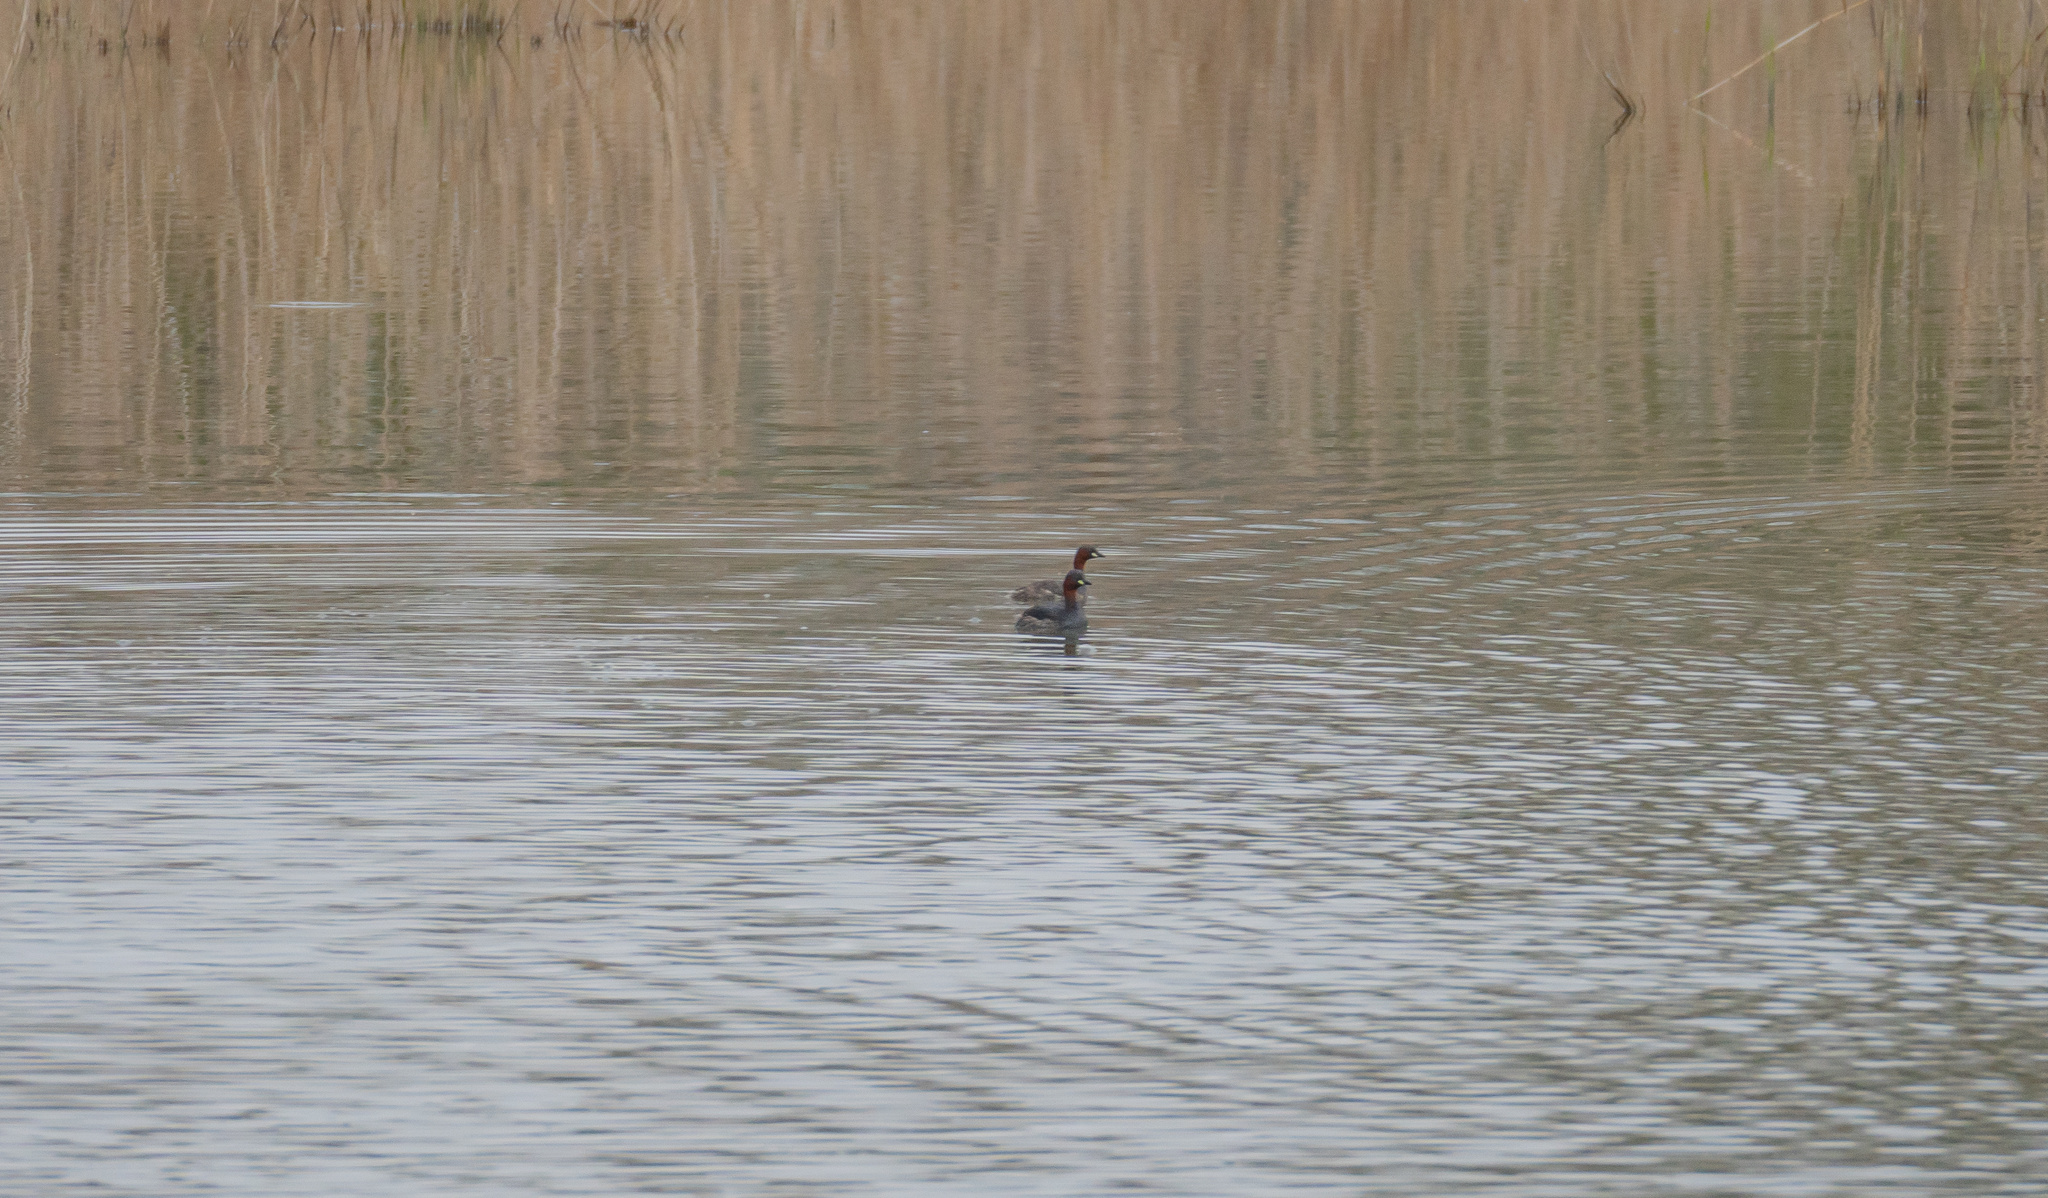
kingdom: Animalia
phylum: Chordata
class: Aves
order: Podicipediformes
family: Podicipedidae
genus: Tachybaptus
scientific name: Tachybaptus ruficollis
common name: Little grebe
